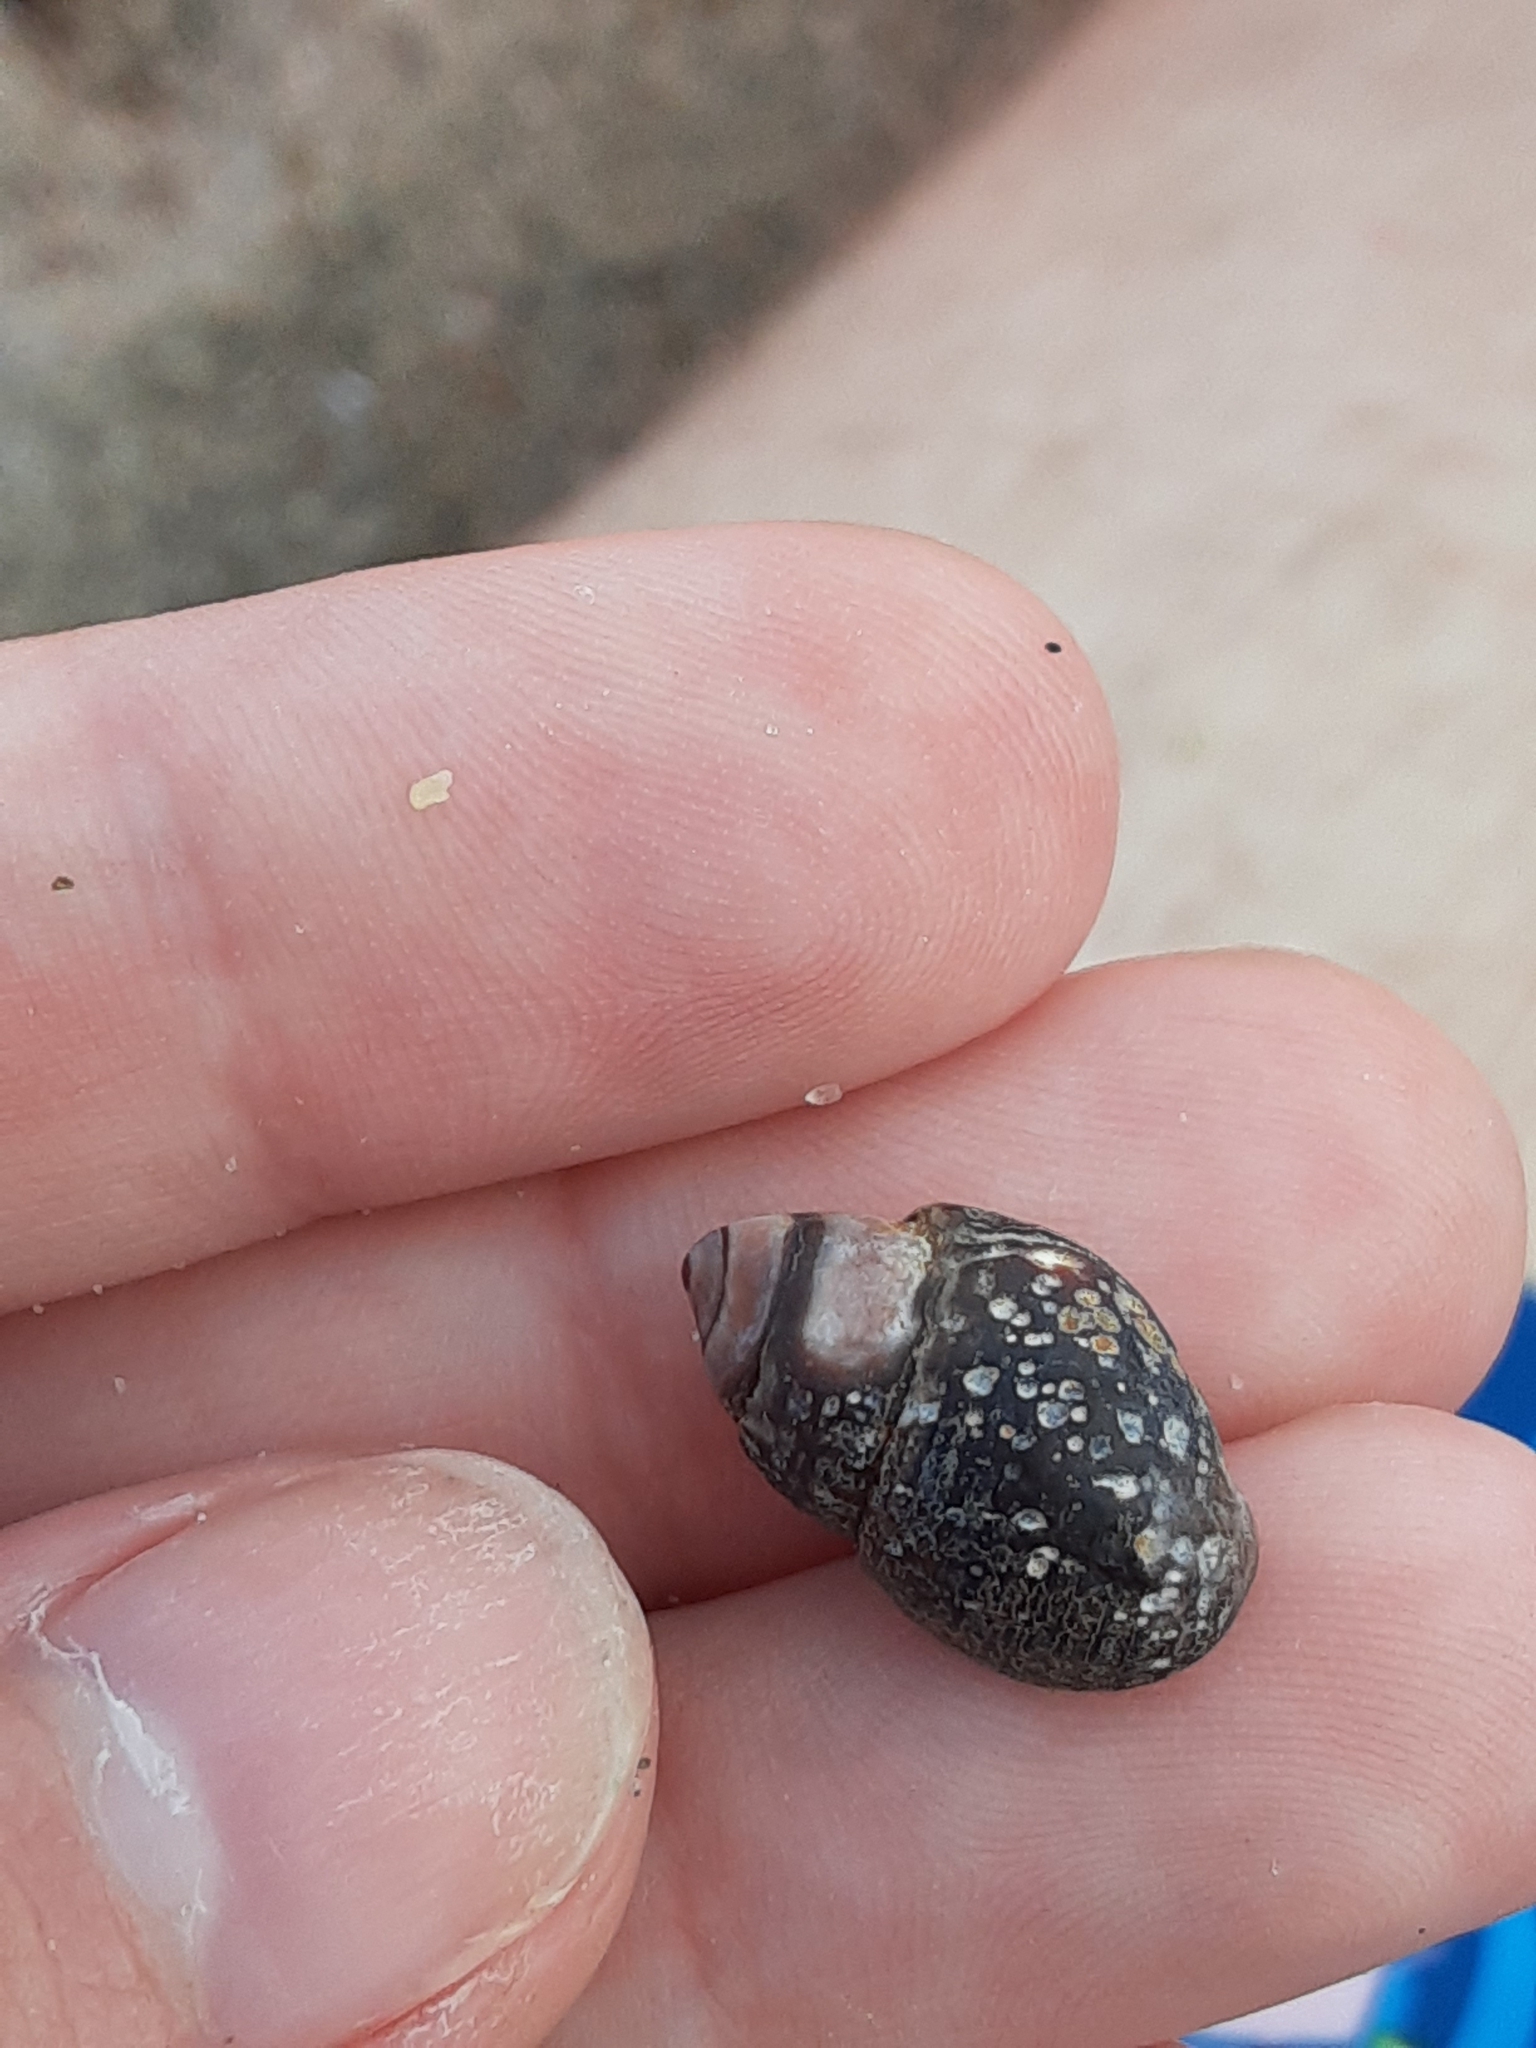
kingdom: Animalia
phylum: Mollusca
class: Gastropoda
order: Neogastropoda
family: Nassariidae
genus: Ilyanassa
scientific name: Ilyanassa obsoleta
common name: Eastern mudsnail
